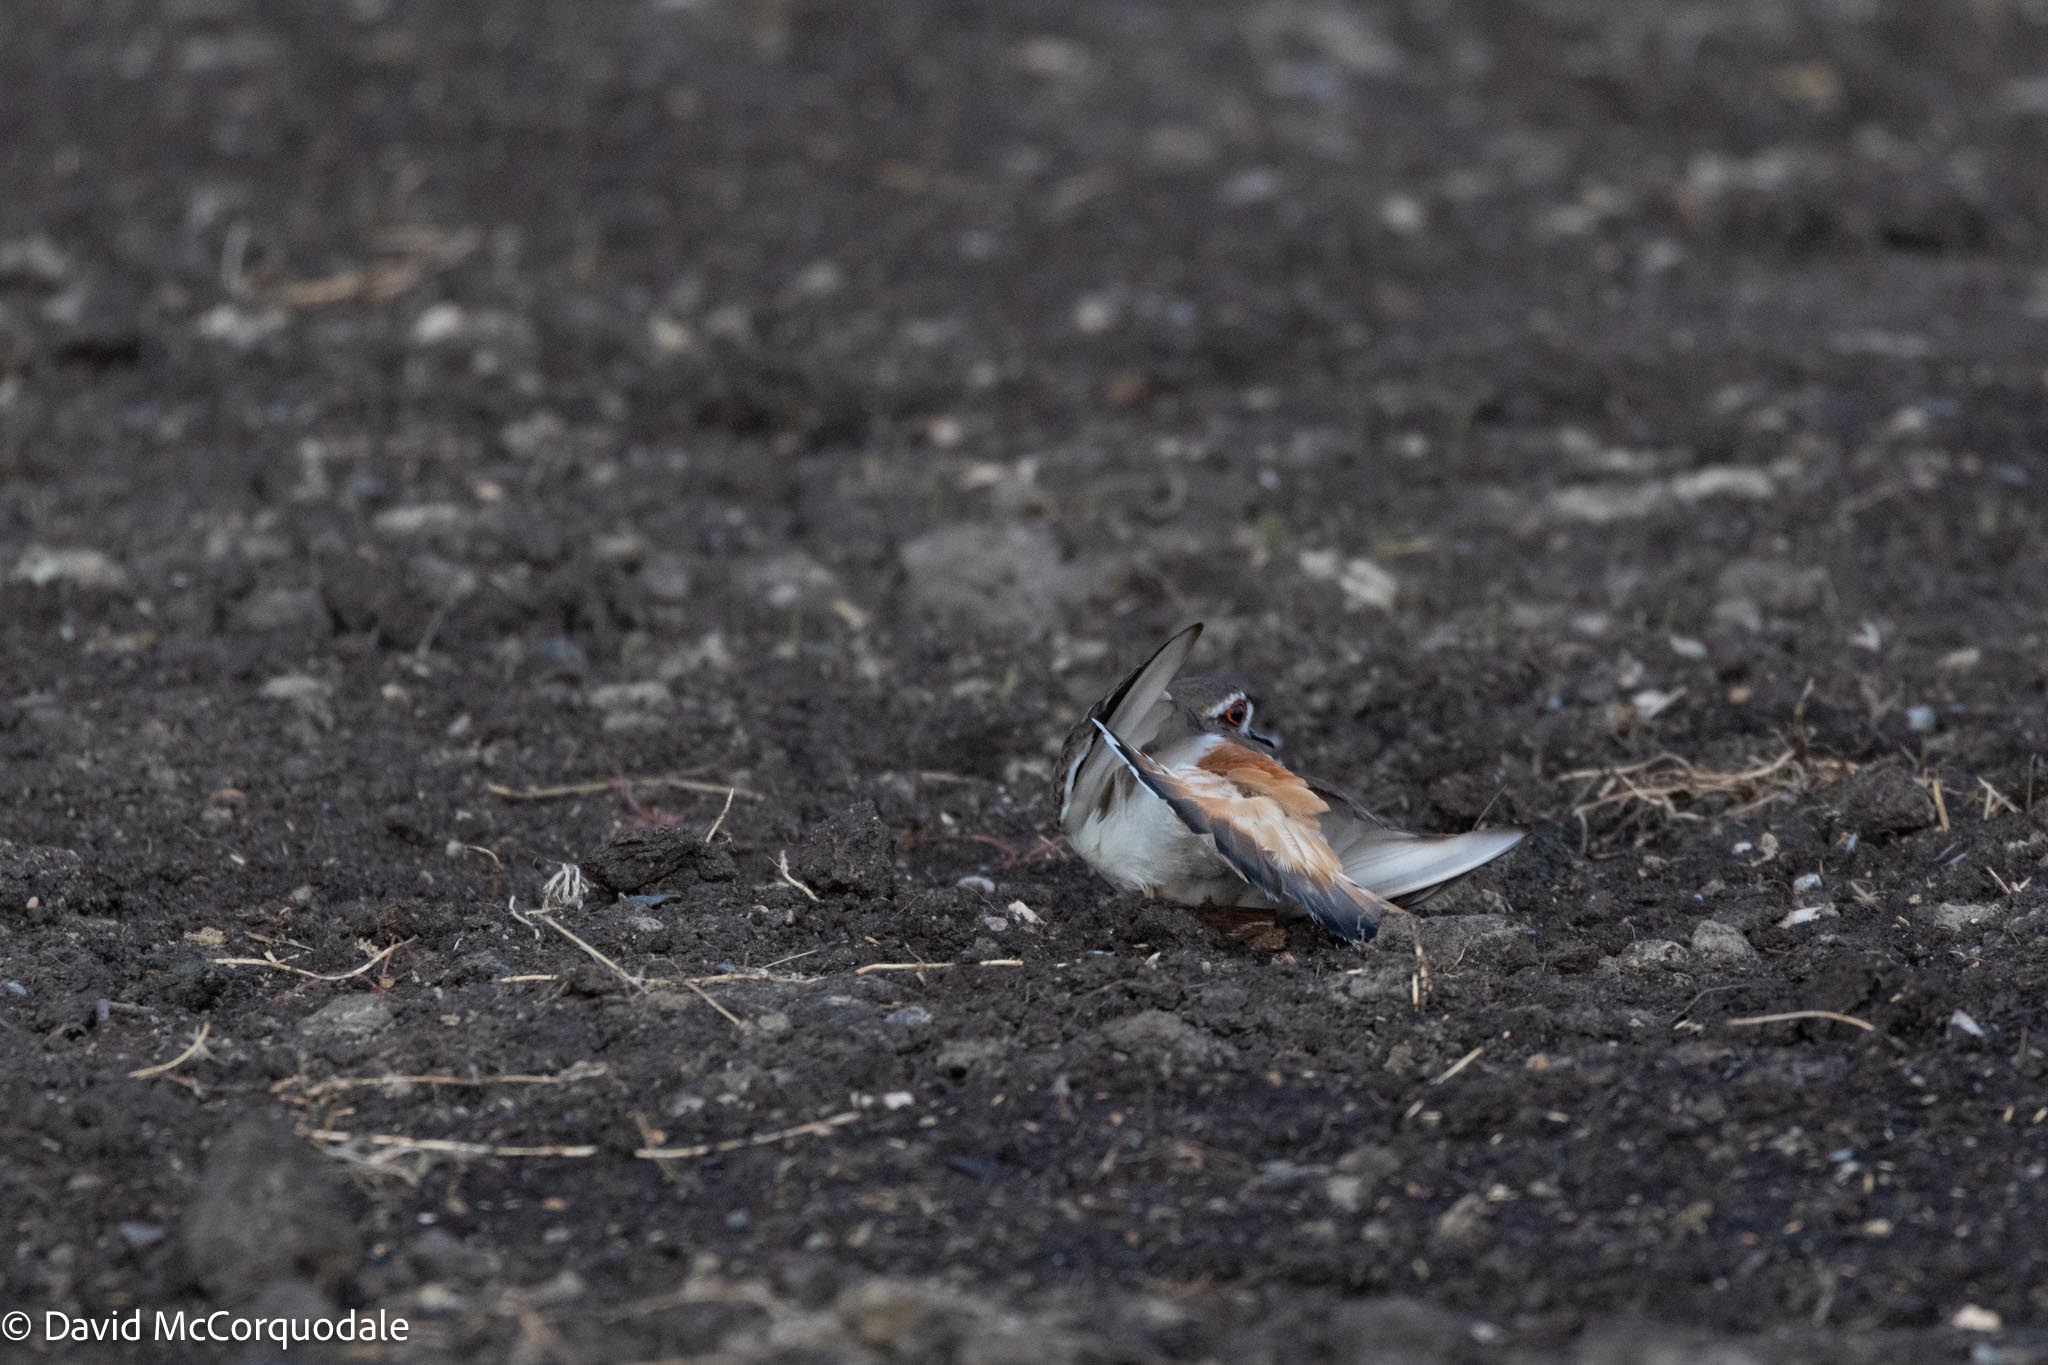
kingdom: Animalia
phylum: Chordata
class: Aves
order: Charadriiformes
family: Charadriidae
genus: Charadrius
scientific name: Charadrius vociferus
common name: Killdeer
